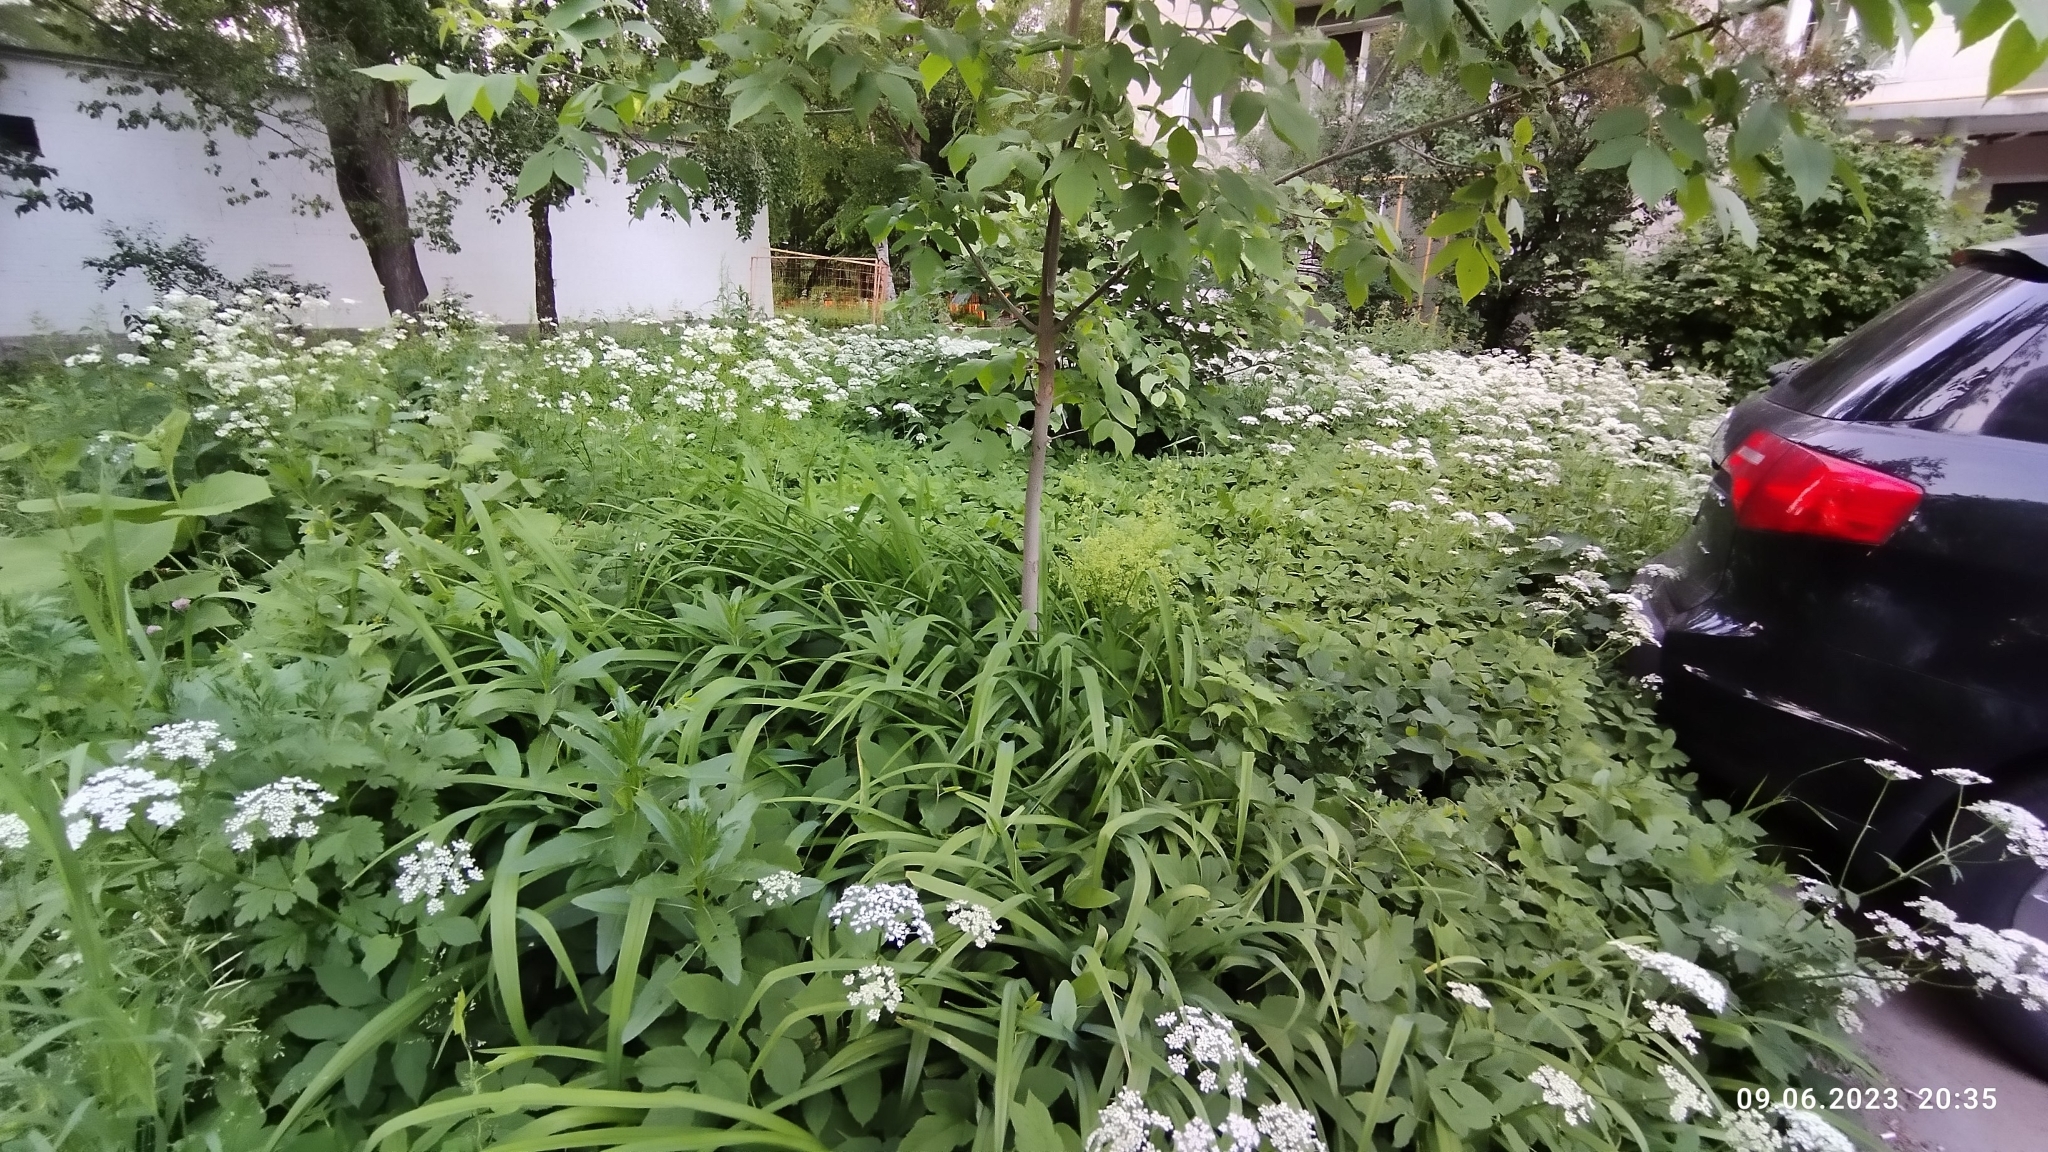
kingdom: Plantae
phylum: Tracheophyta
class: Magnoliopsida
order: Apiales
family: Apiaceae
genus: Aegopodium
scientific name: Aegopodium podagraria
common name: Ground-elder
